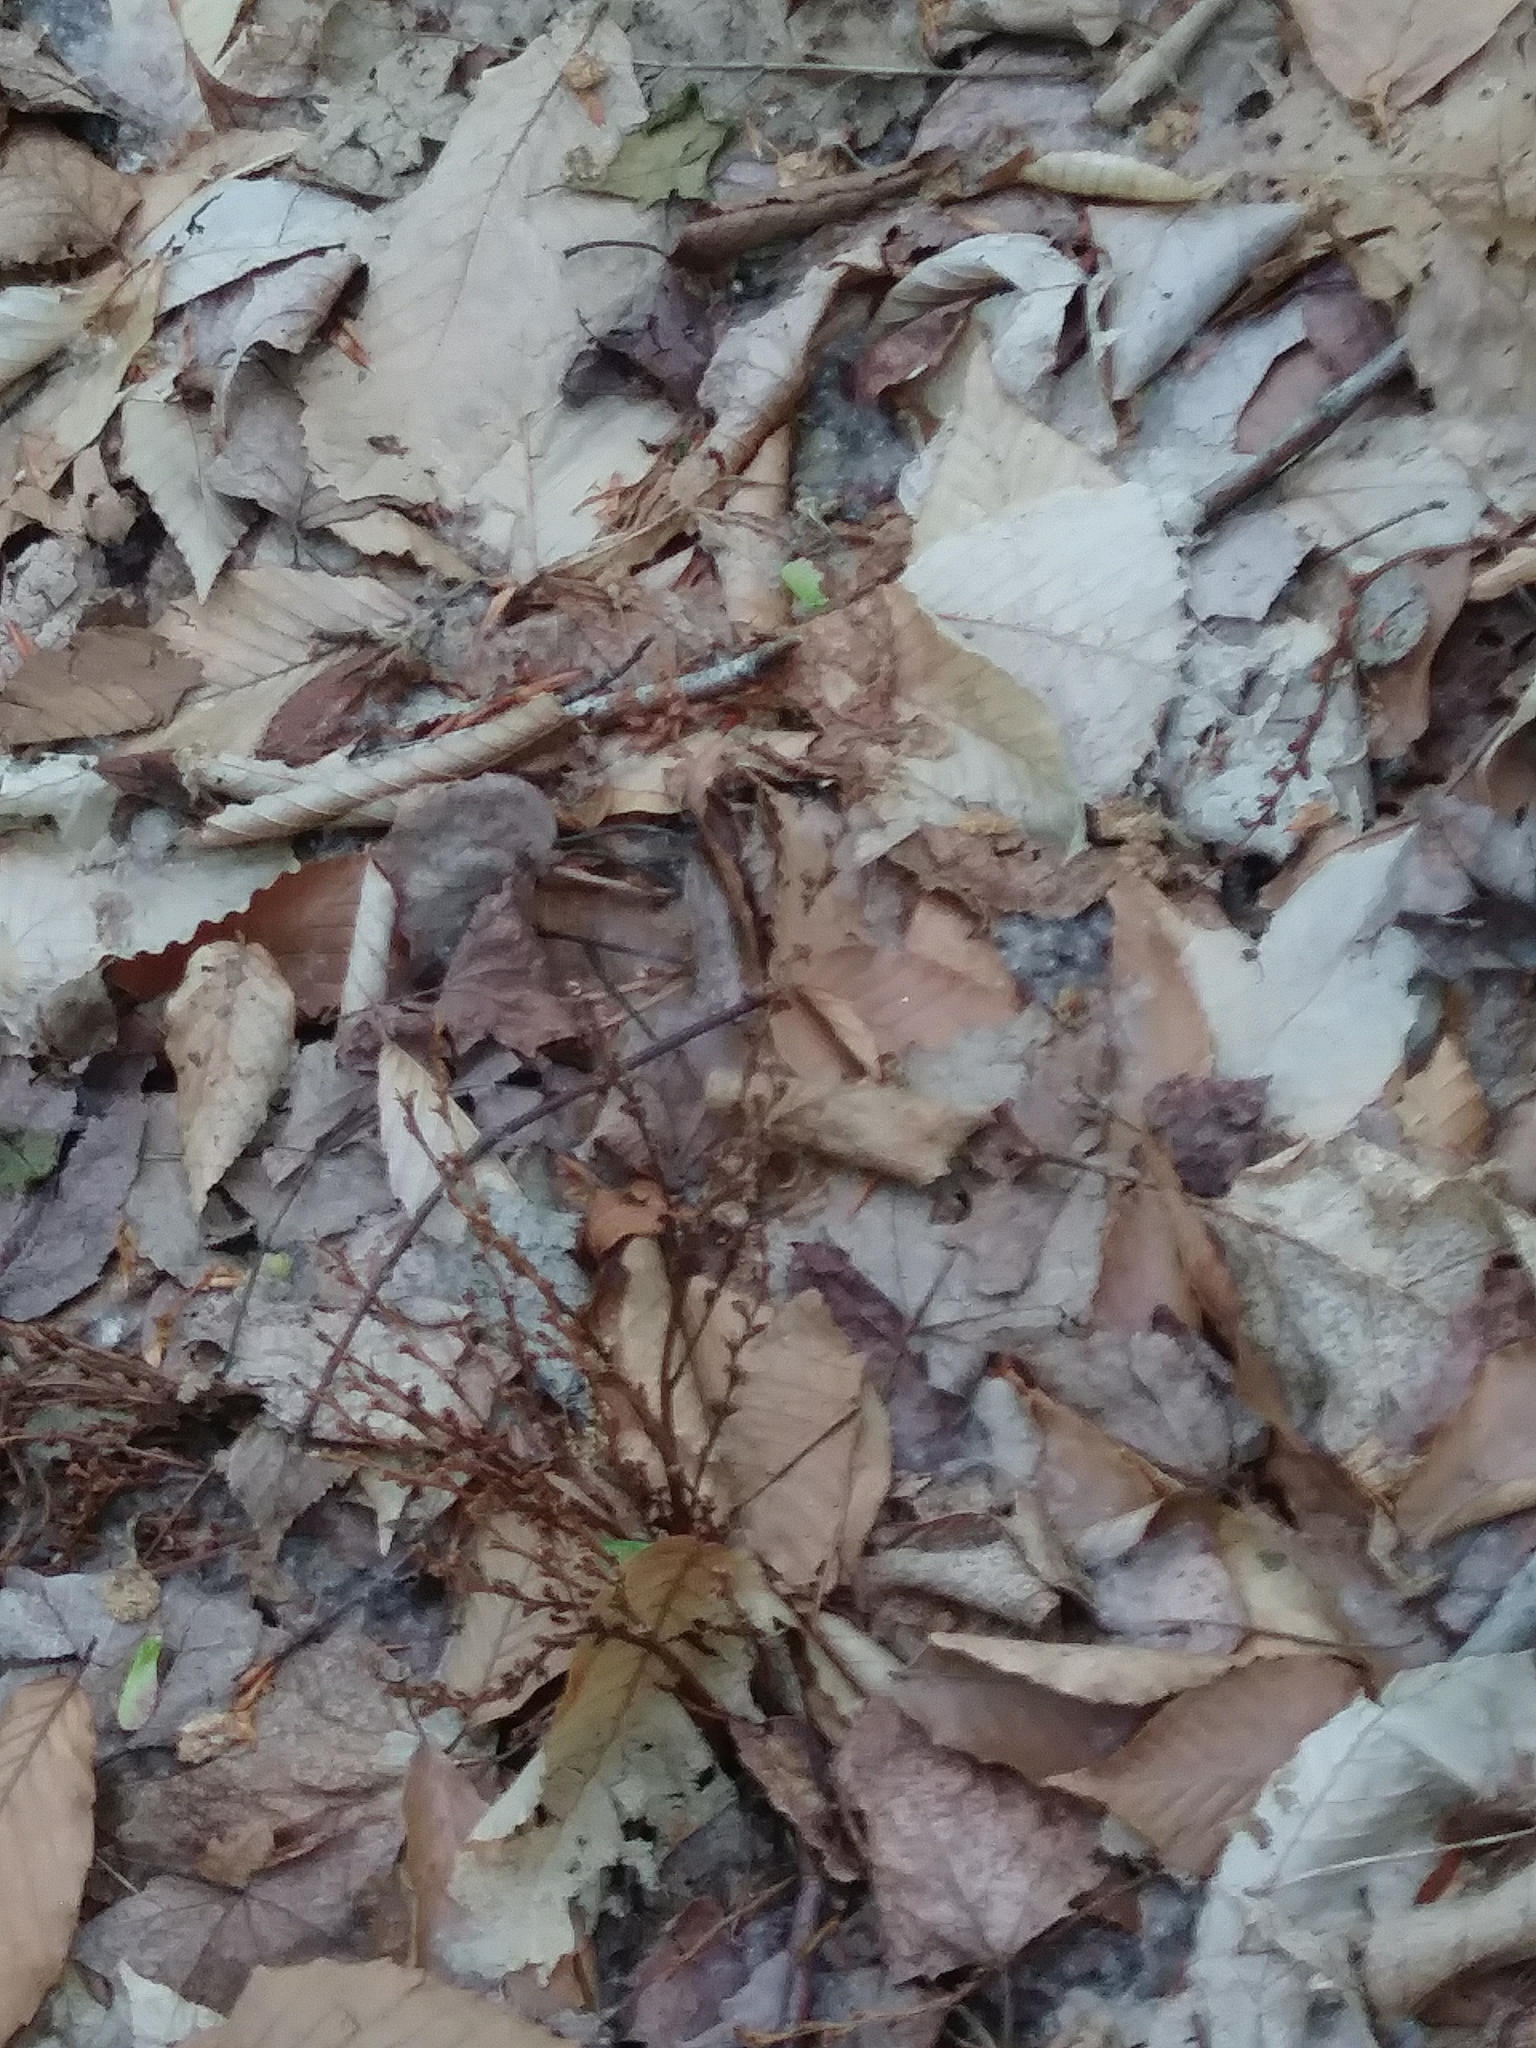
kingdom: Plantae
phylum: Tracheophyta
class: Magnoliopsida
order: Lamiales
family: Orobanchaceae
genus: Epifagus
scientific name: Epifagus virginiana
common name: Beechdrops
